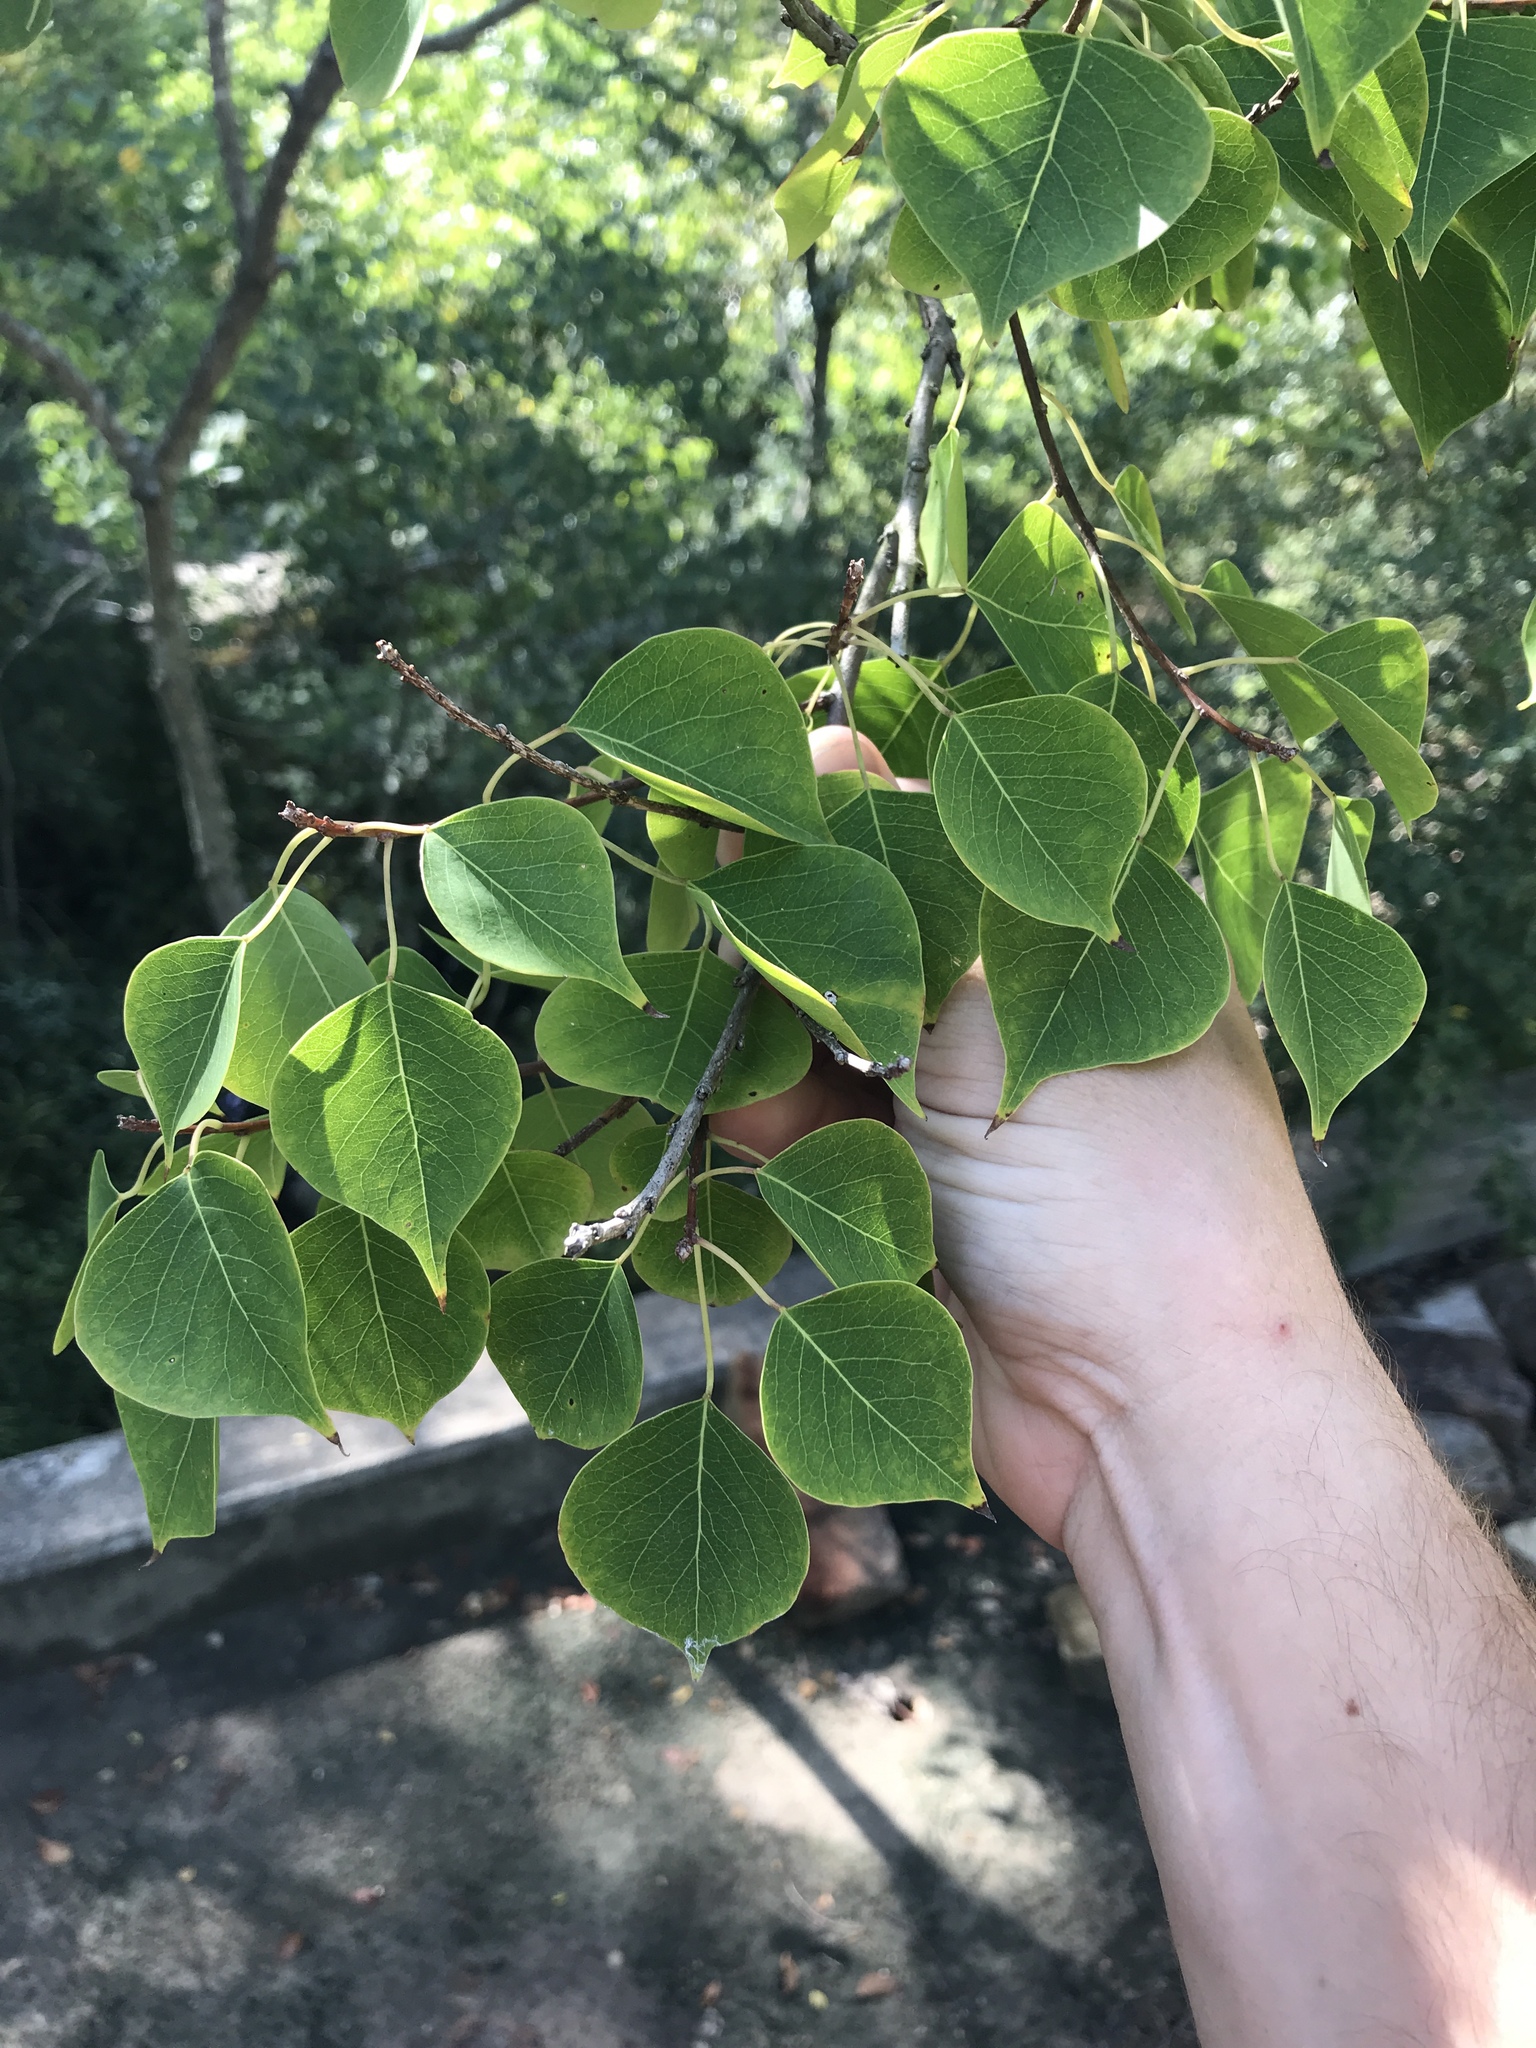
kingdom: Plantae
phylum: Tracheophyta
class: Magnoliopsida
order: Malpighiales
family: Euphorbiaceae
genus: Triadica
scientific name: Triadica sebifera
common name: Chinese tallow
